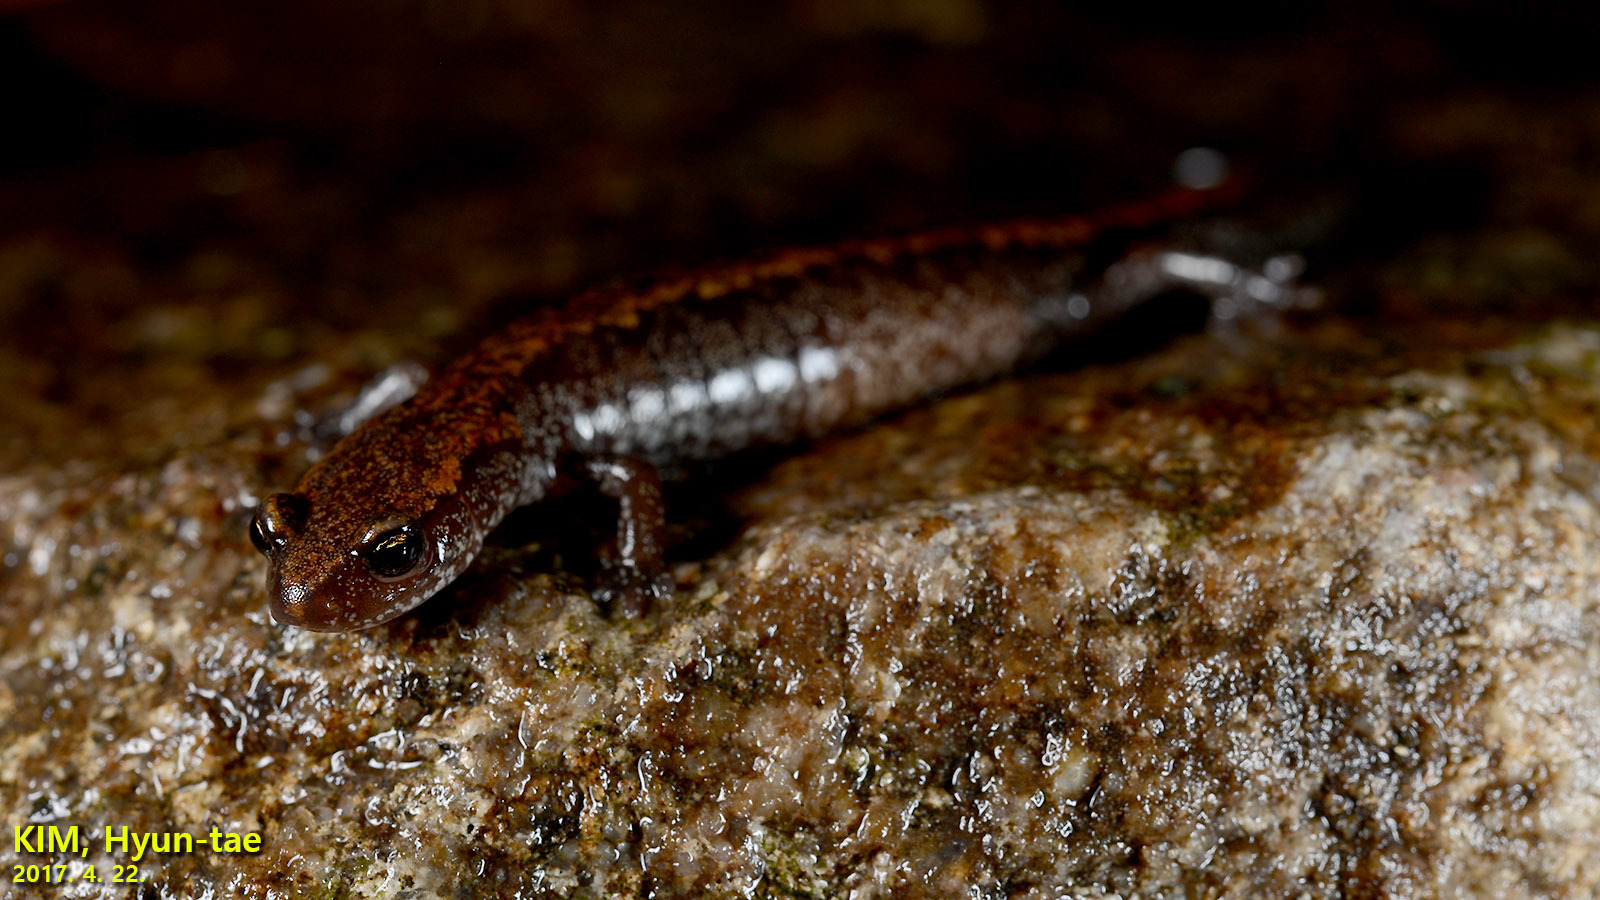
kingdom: Animalia
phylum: Chordata
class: Amphibia
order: Caudata
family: Plethodontidae
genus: Karsenia
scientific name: Karsenia koreana
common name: Korean crevice salamander
